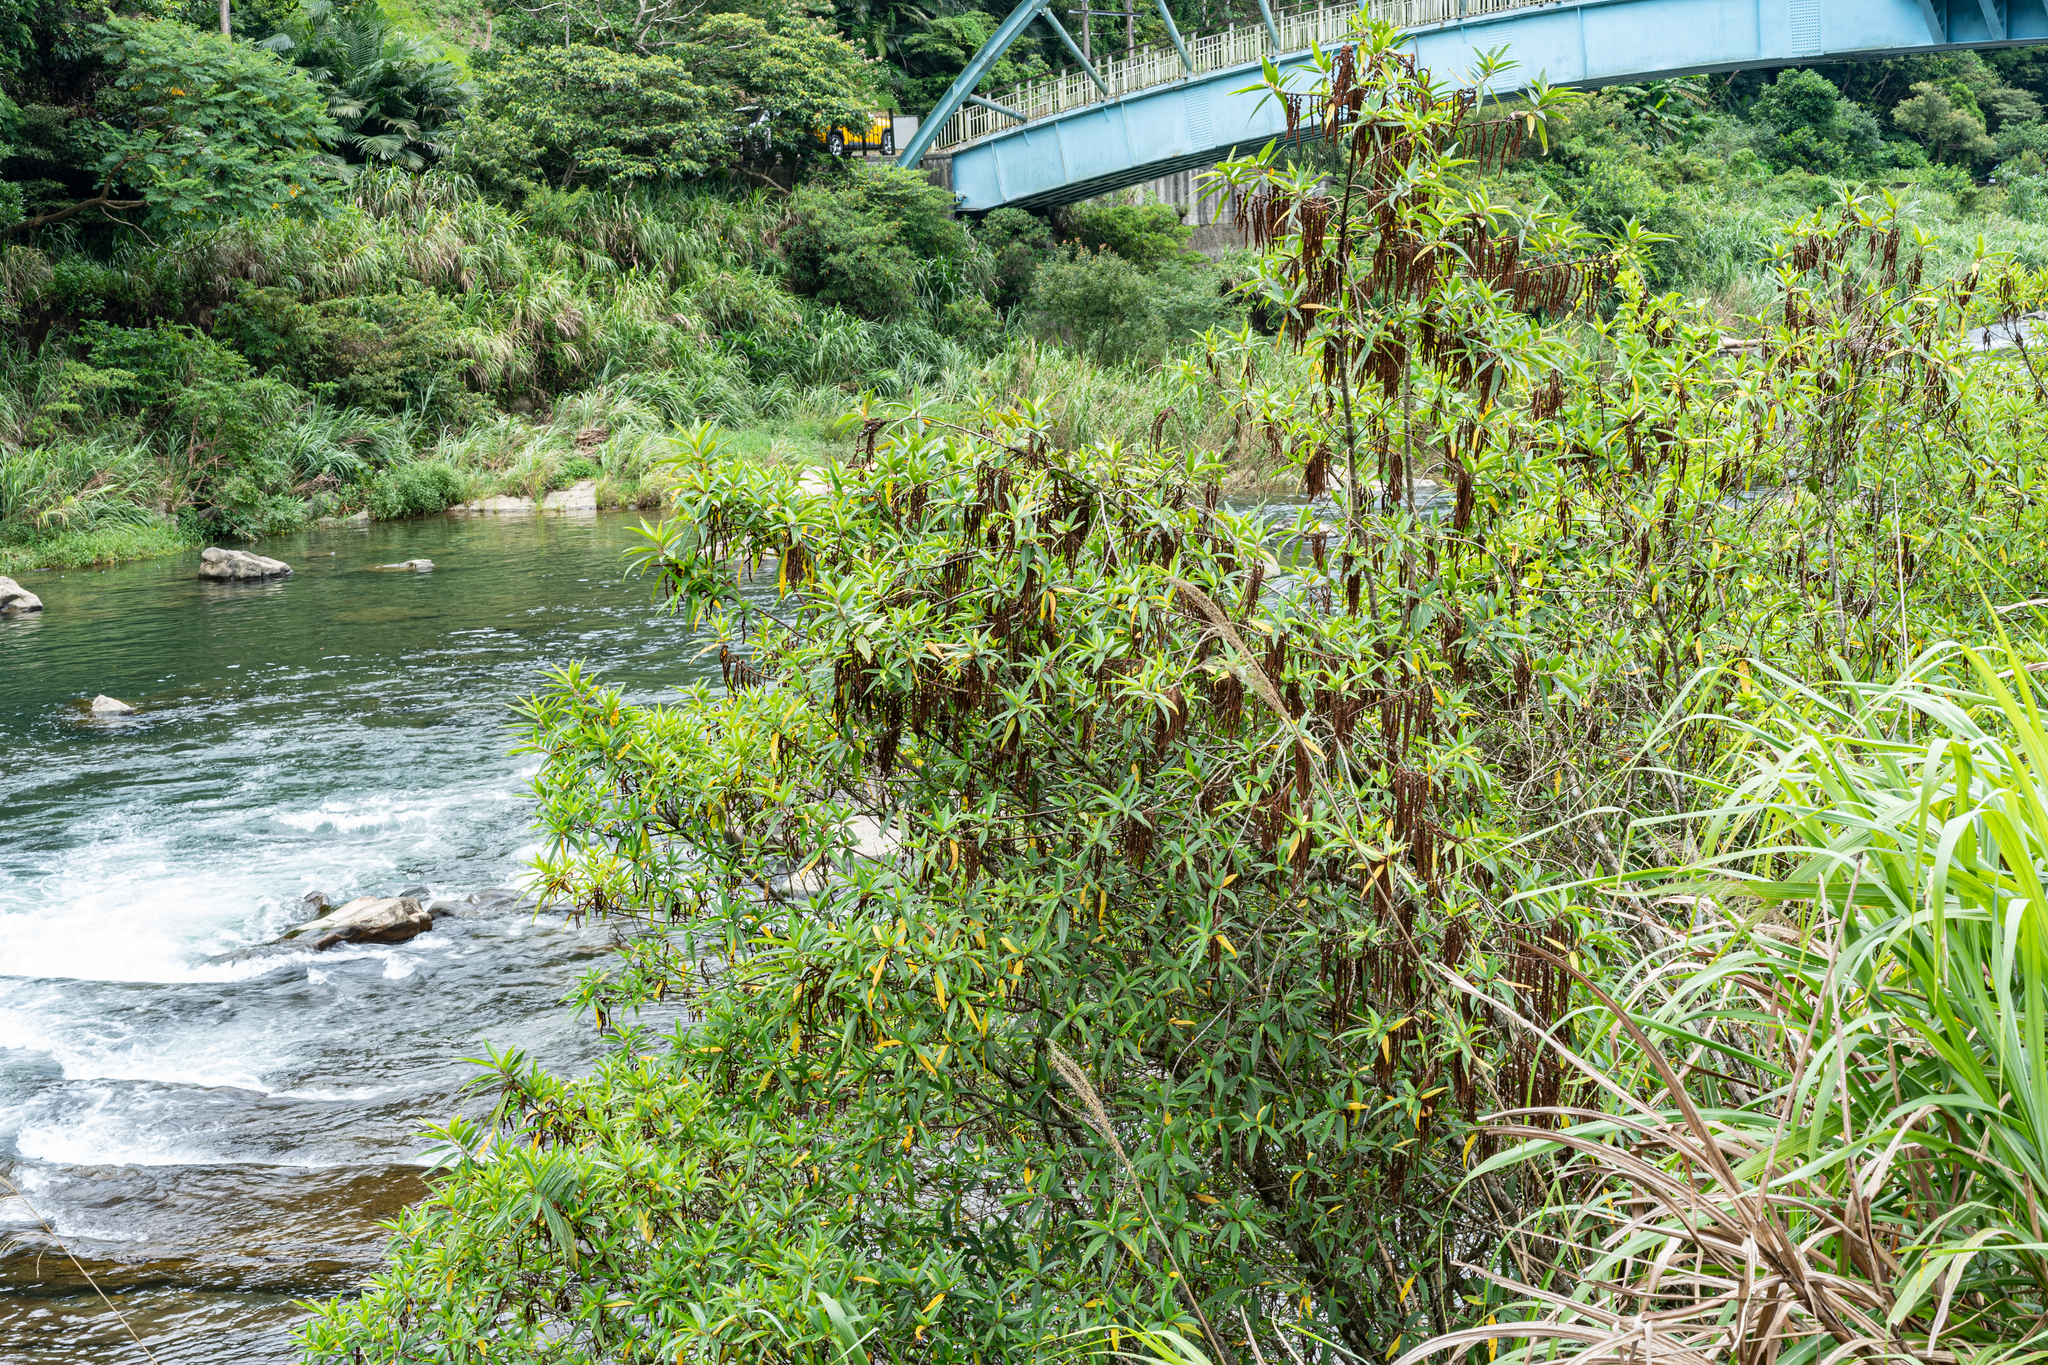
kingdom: Plantae
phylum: Tracheophyta
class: Magnoliopsida
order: Rosales
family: Urticaceae
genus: Boehmeria
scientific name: Boehmeria densiflora
